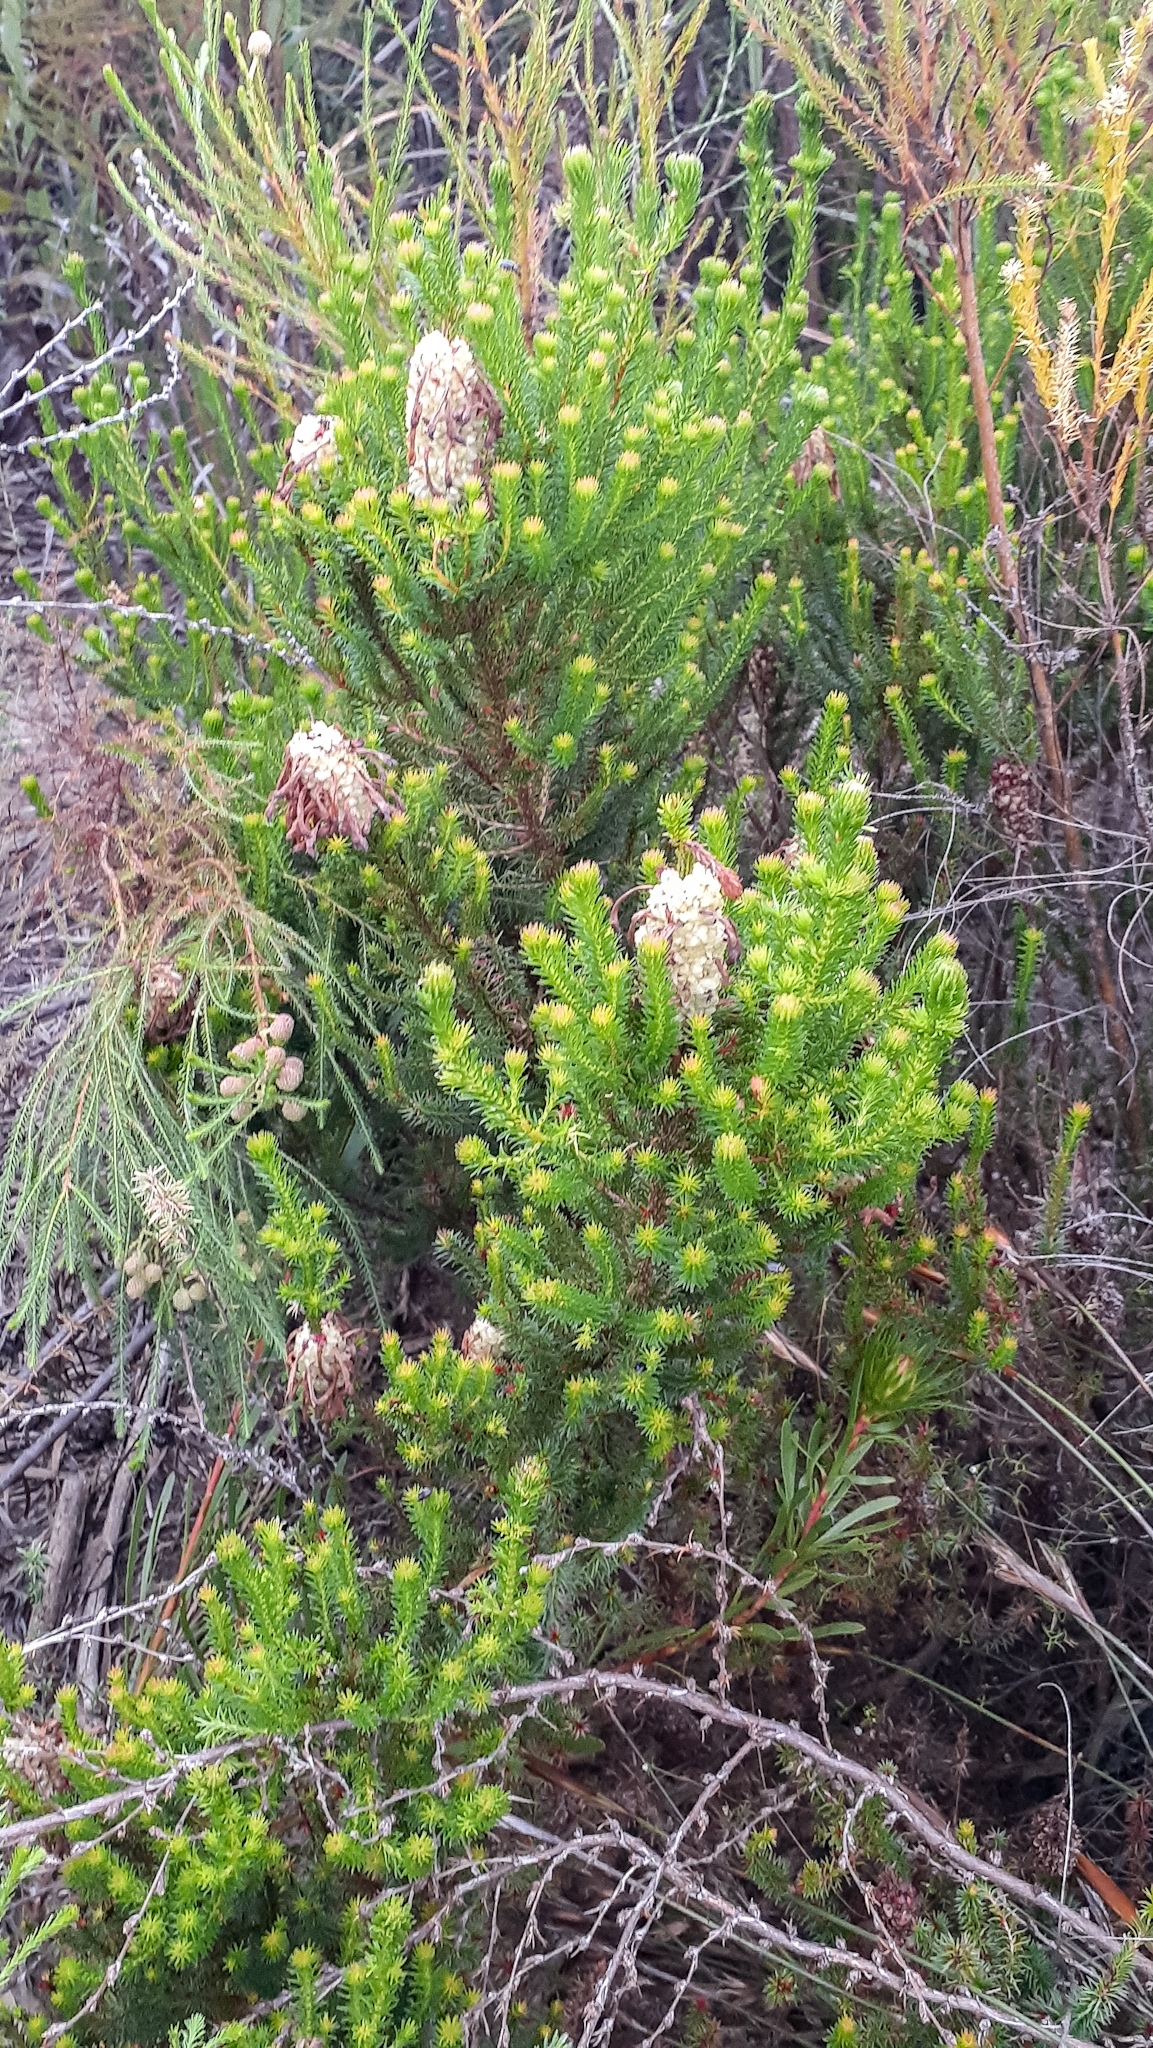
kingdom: Plantae
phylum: Tracheophyta
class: Magnoliopsida
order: Ericales
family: Ericaceae
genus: Erica
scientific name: Erica sessiliflora
